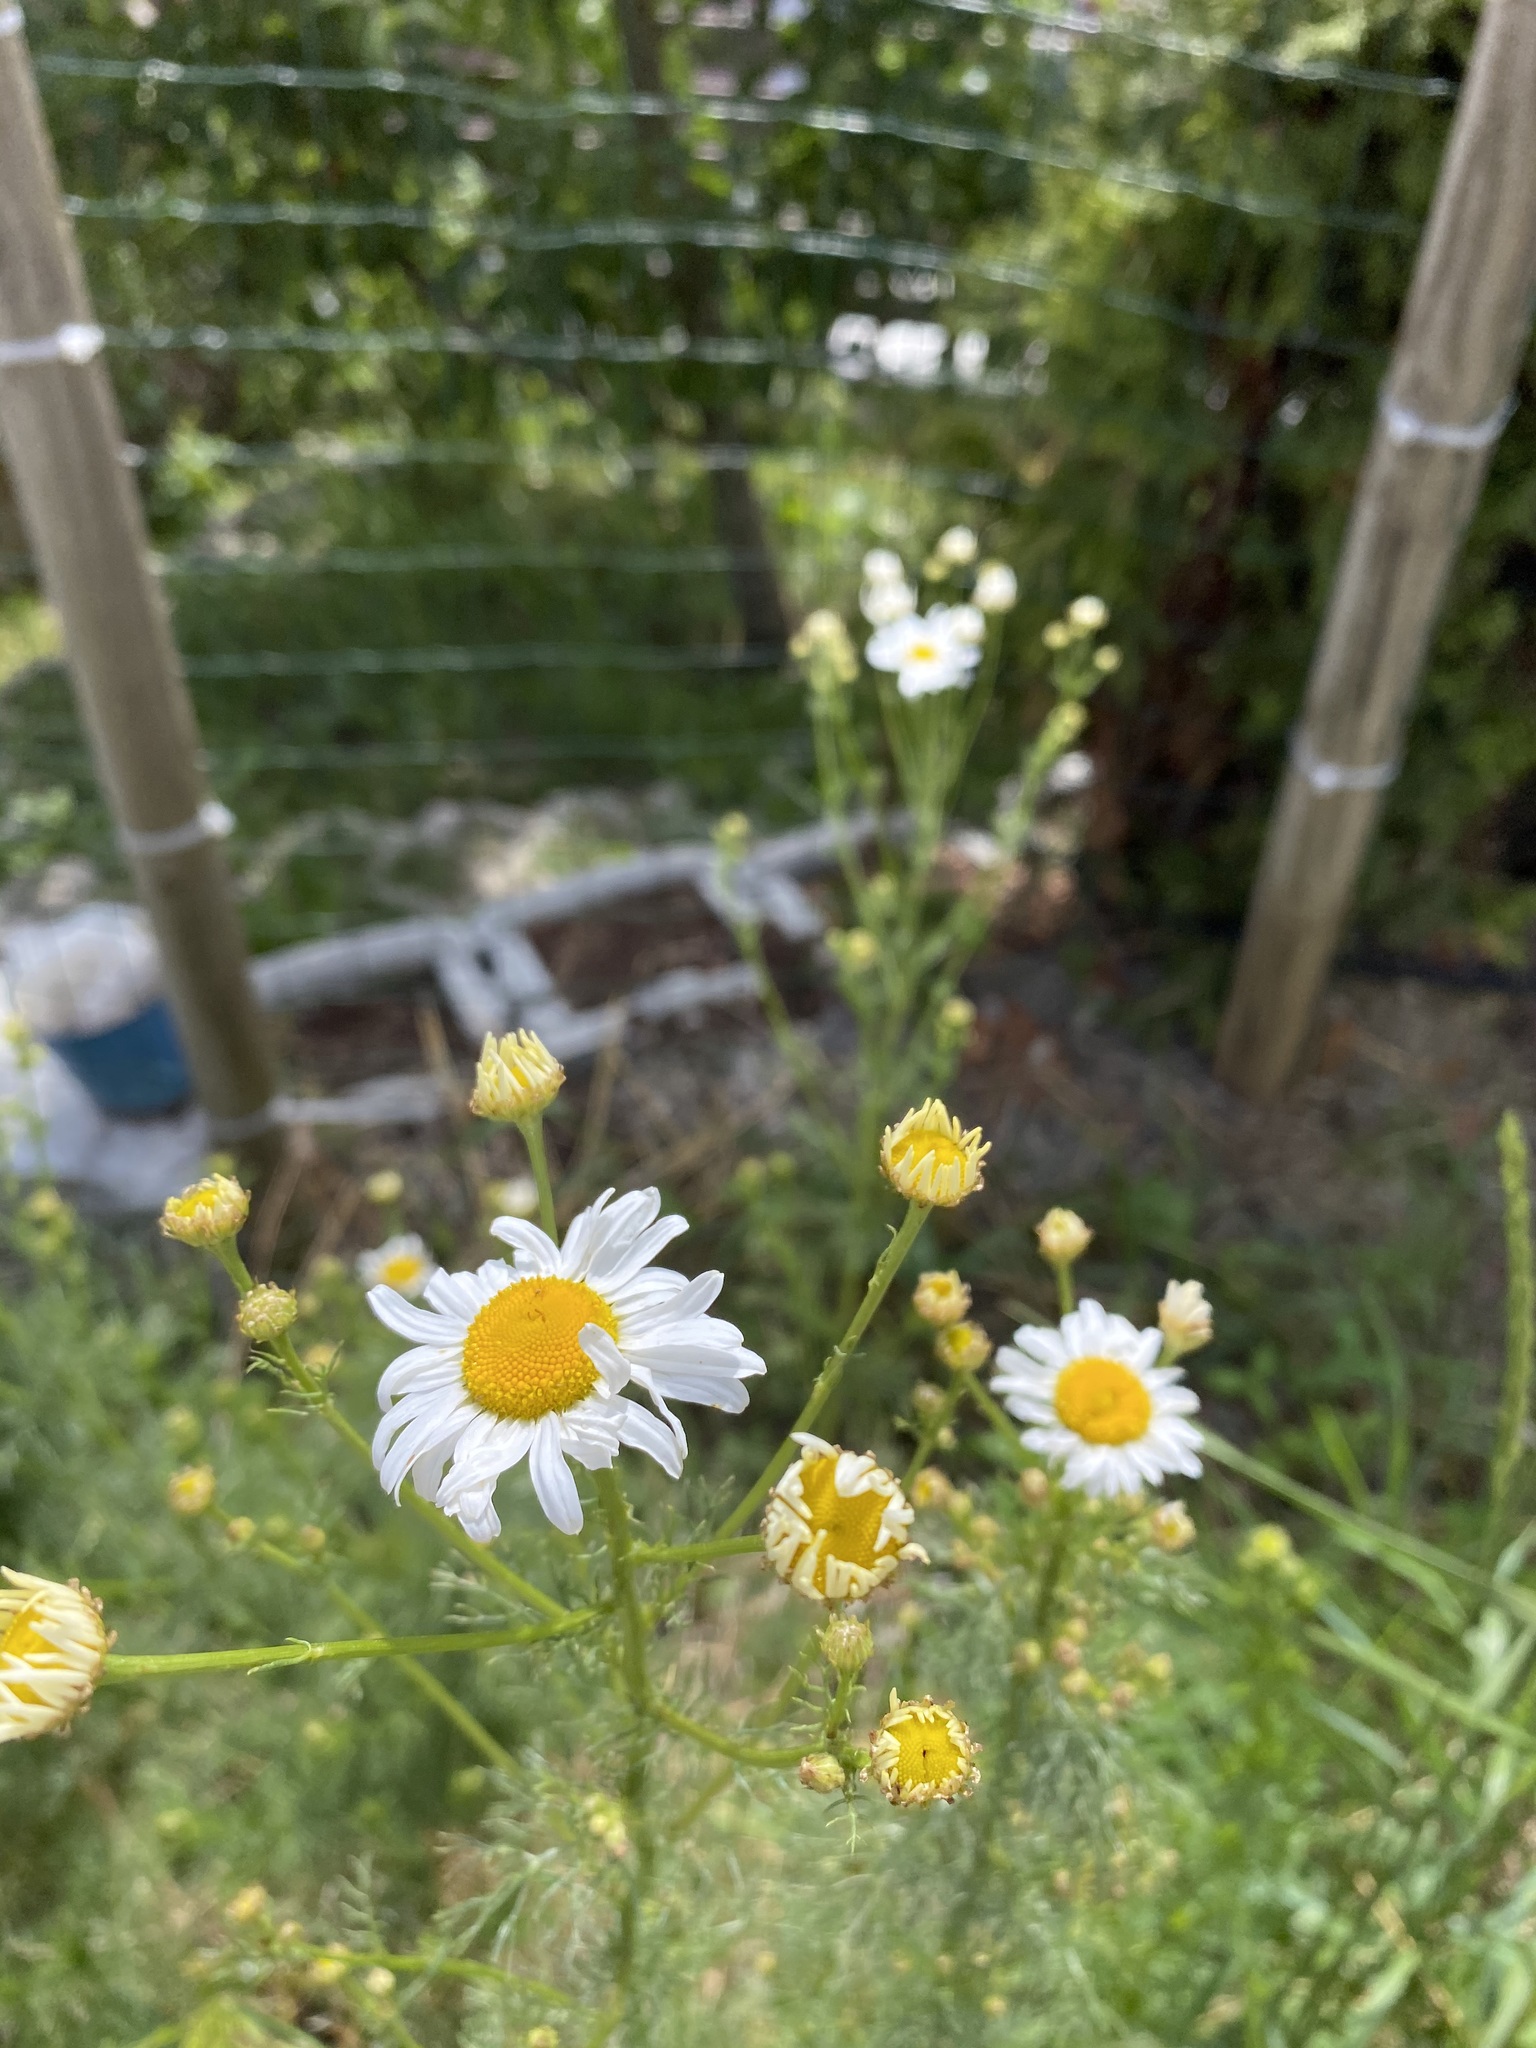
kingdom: Plantae
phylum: Tracheophyta
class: Magnoliopsida
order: Asterales
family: Asteraceae
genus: Tripleurospermum
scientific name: Tripleurospermum inodorum
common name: Scentless mayweed
